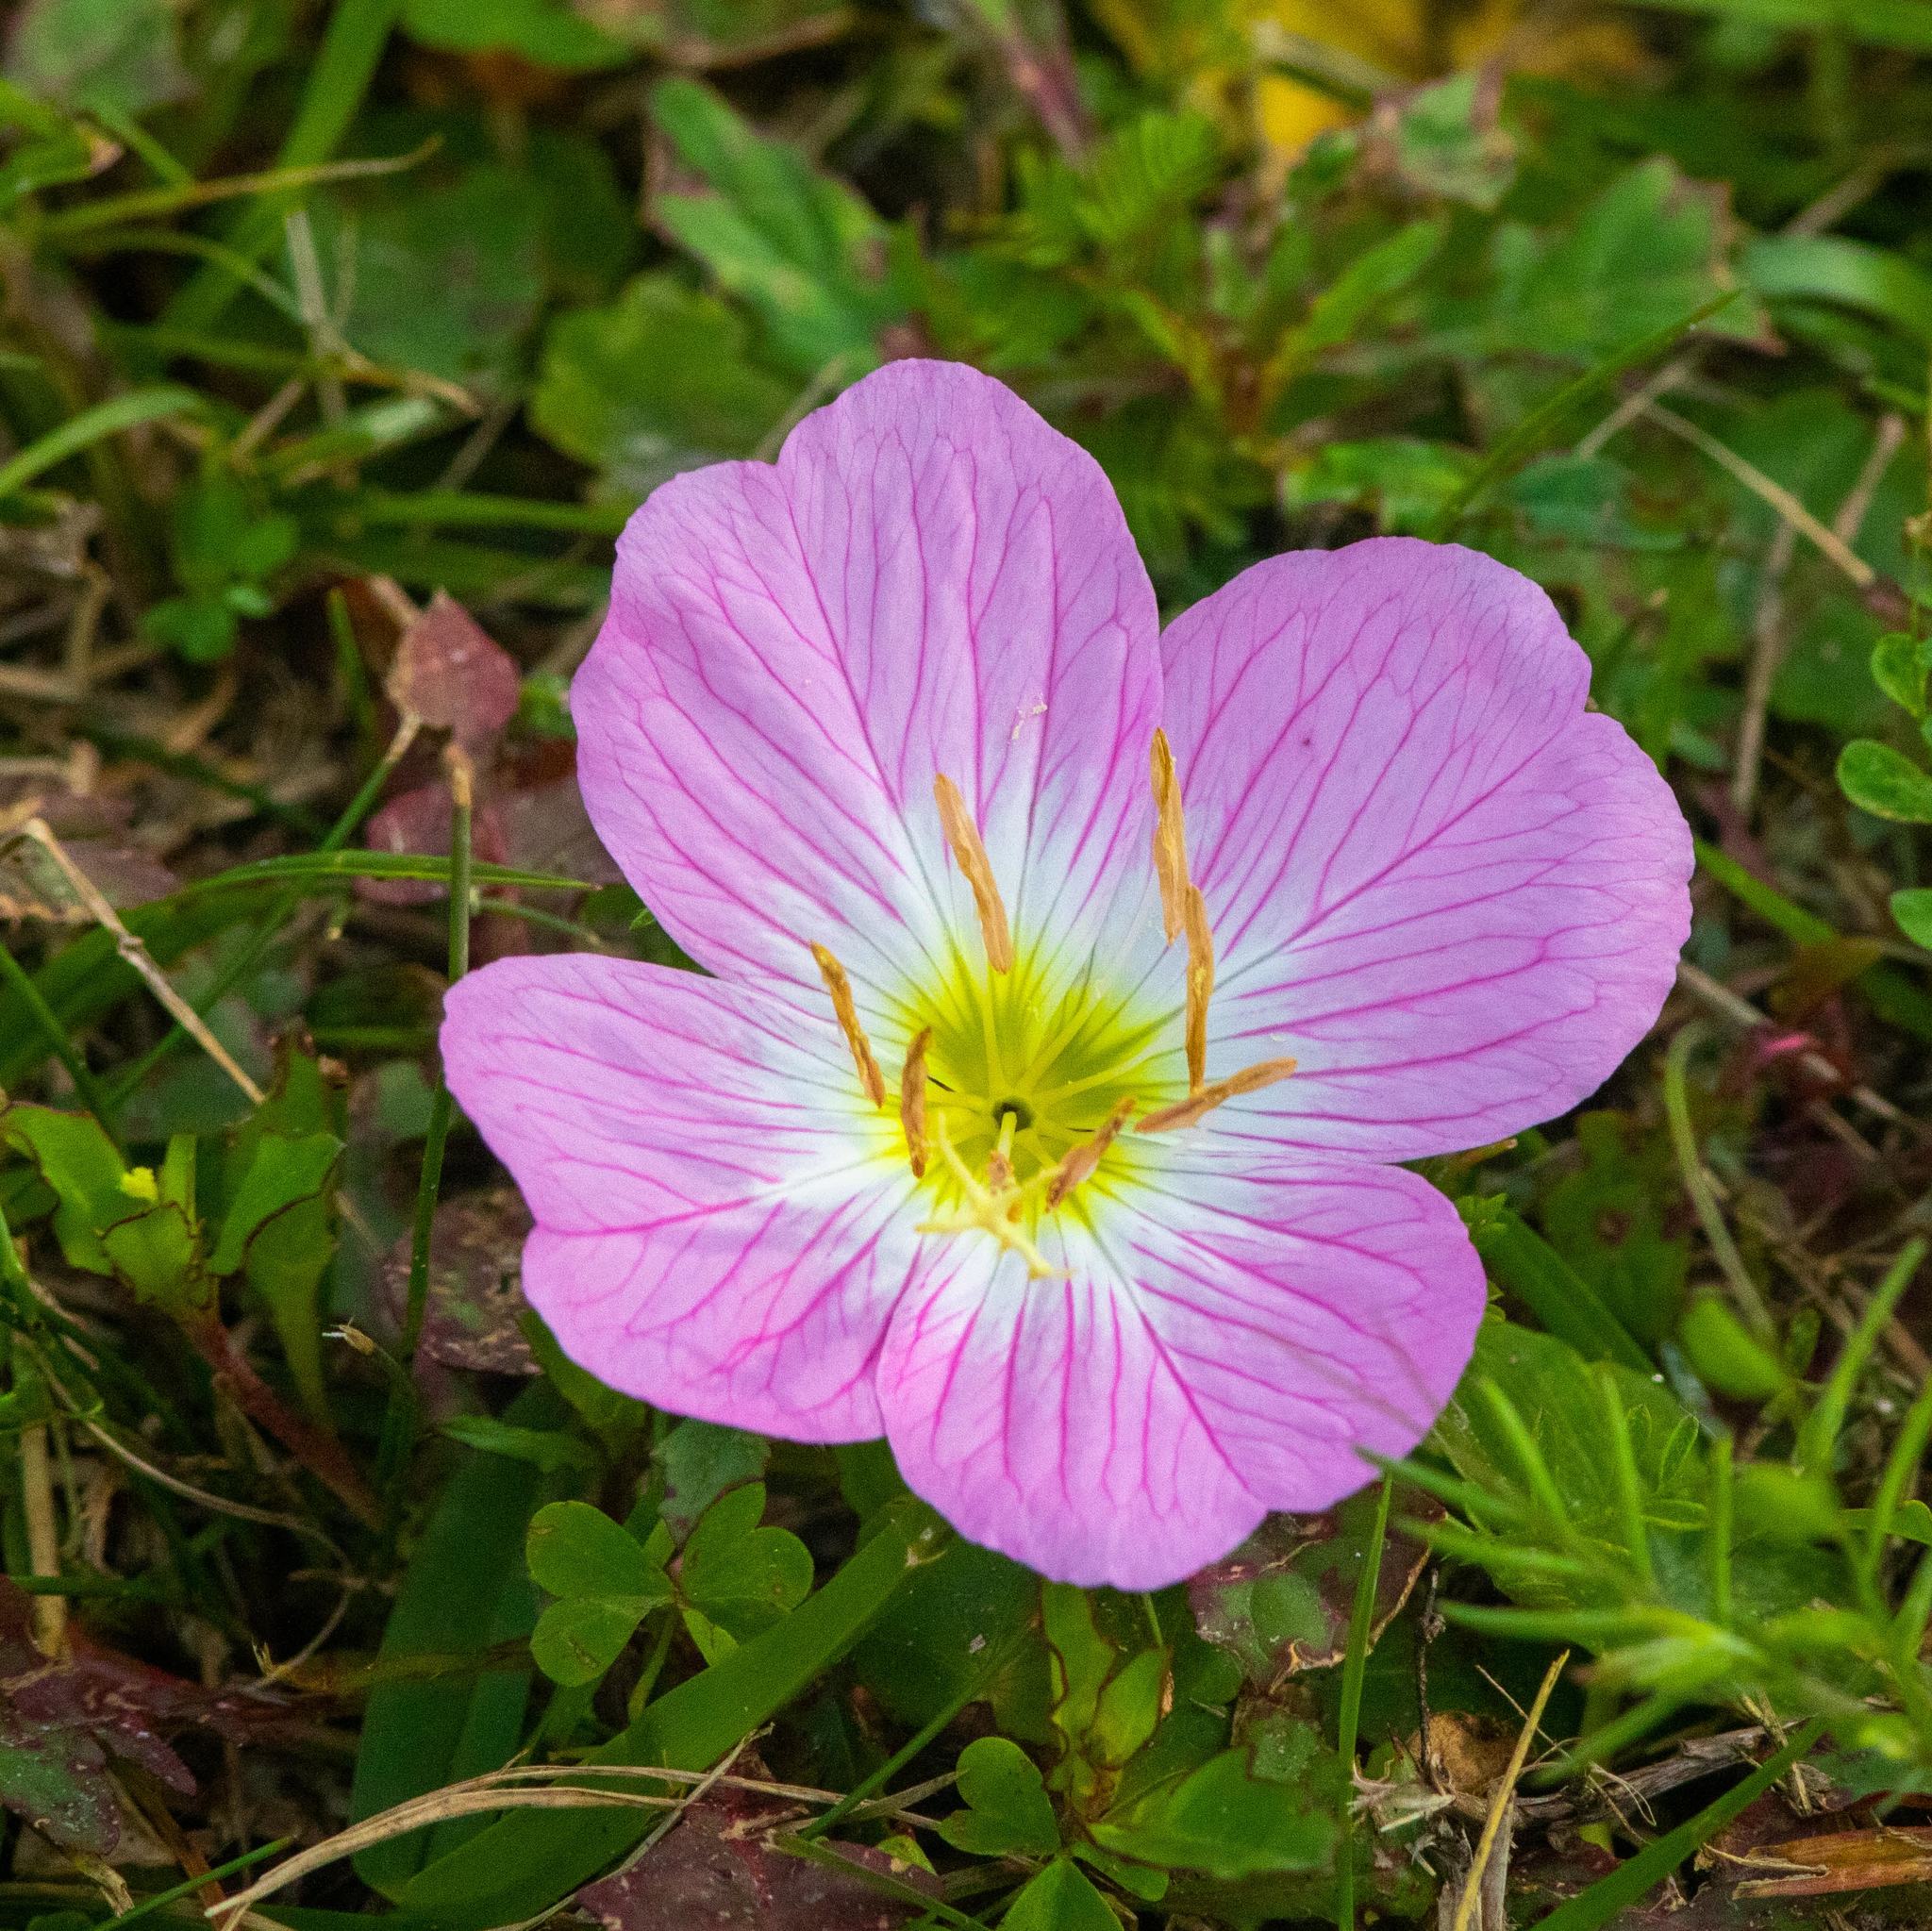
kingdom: Plantae
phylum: Tracheophyta
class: Magnoliopsida
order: Myrtales
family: Onagraceae
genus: Oenothera
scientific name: Oenothera speciosa
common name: White evening-primrose
